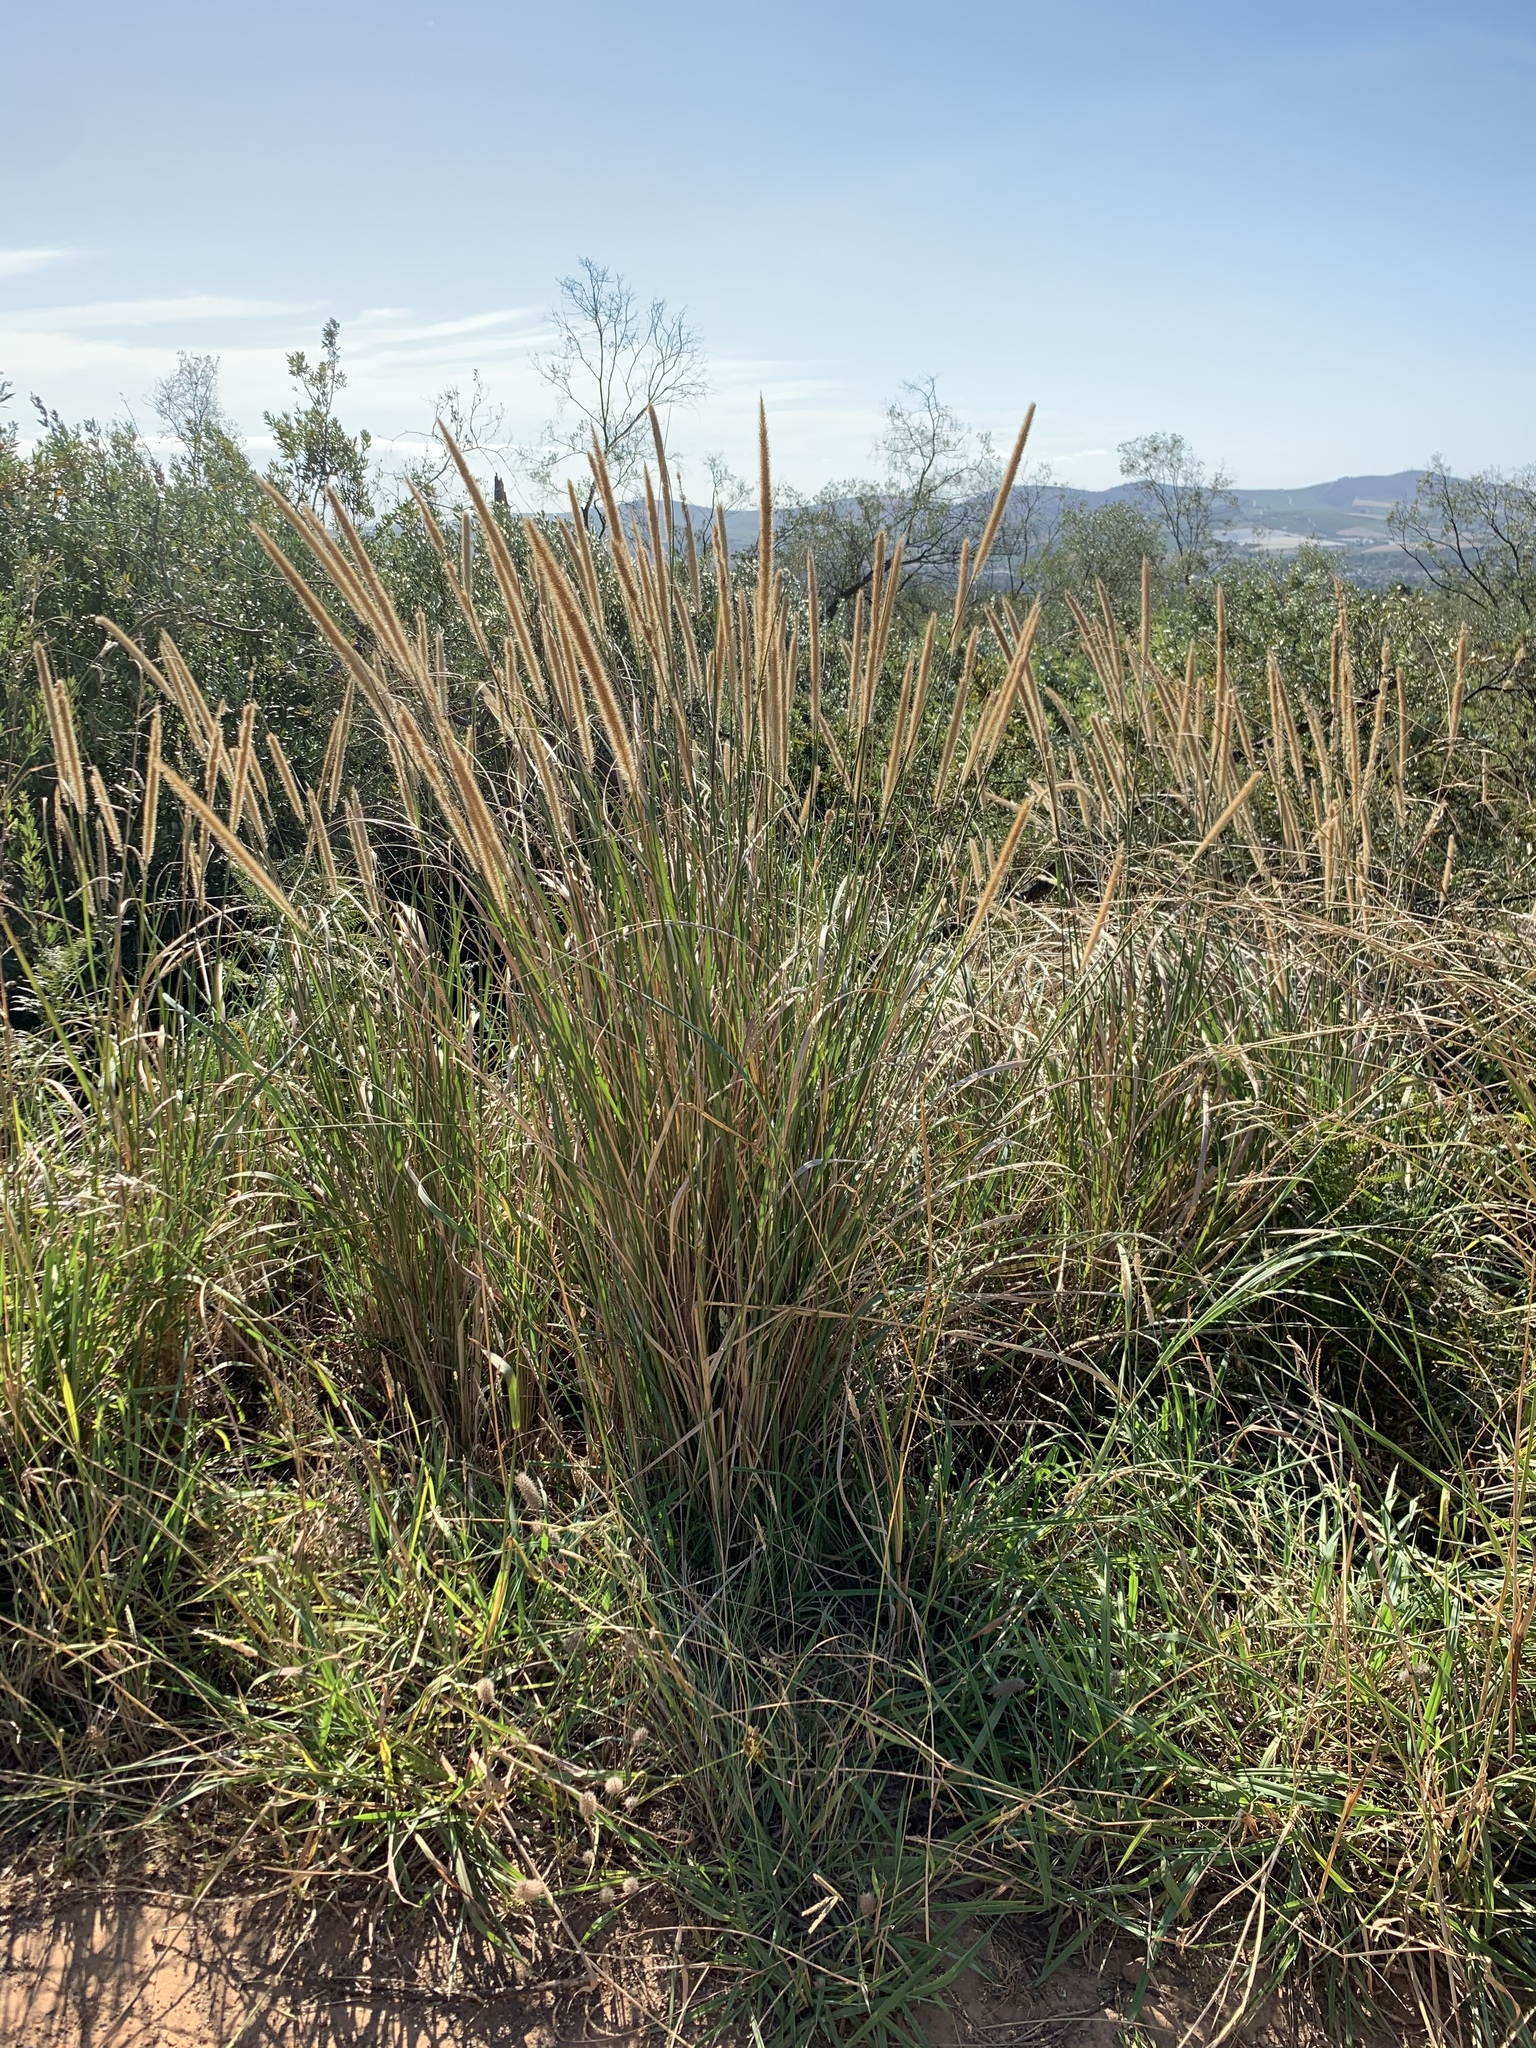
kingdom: Plantae
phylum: Tracheophyta
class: Liliopsida
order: Poales
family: Poaceae
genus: Cenchrus
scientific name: Cenchrus caudatus
